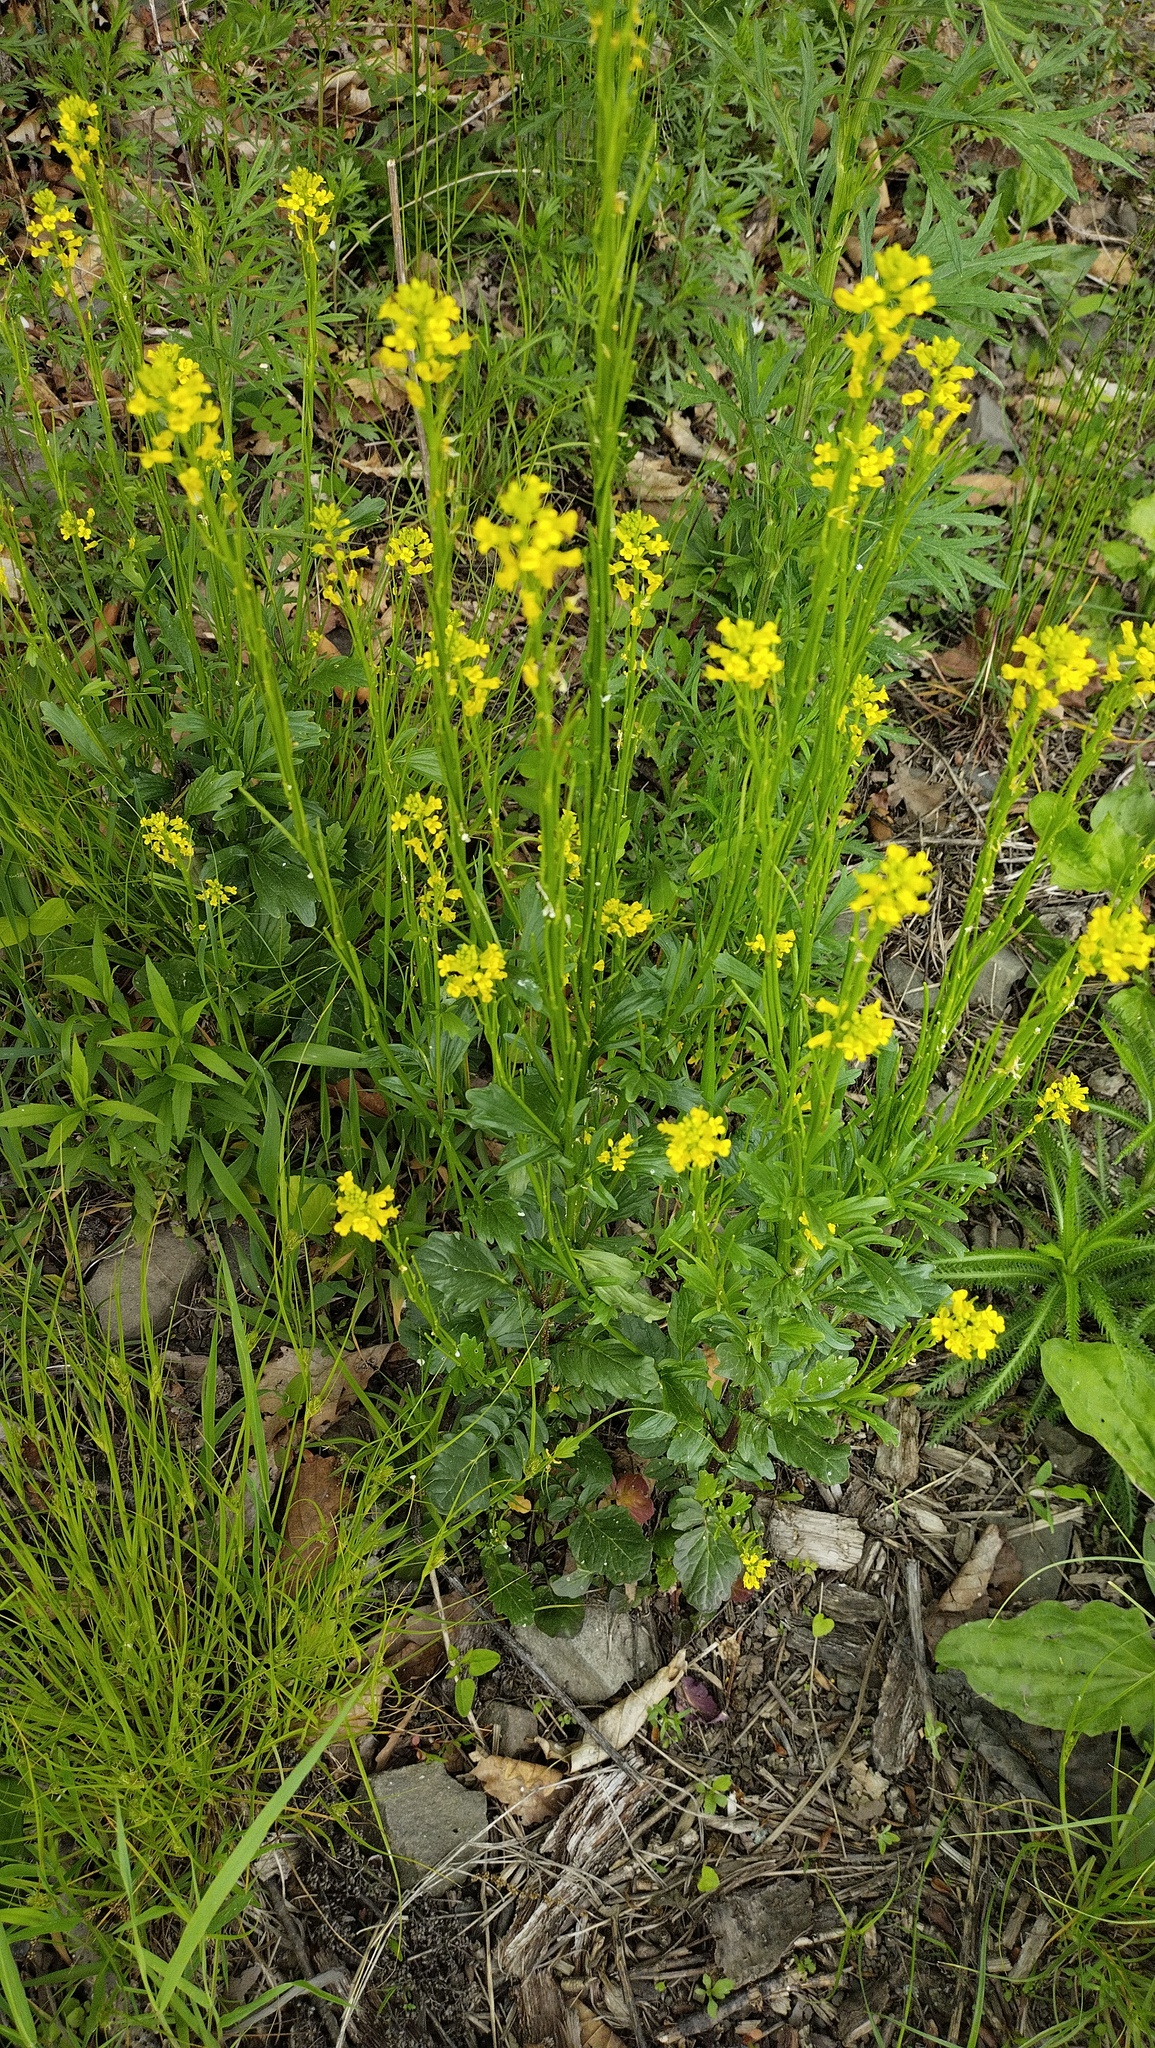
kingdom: Plantae
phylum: Tracheophyta
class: Magnoliopsida
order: Brassicales
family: Brassicaceae
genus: Barbarea
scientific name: Barbarea orthoceras
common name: American wintercress
